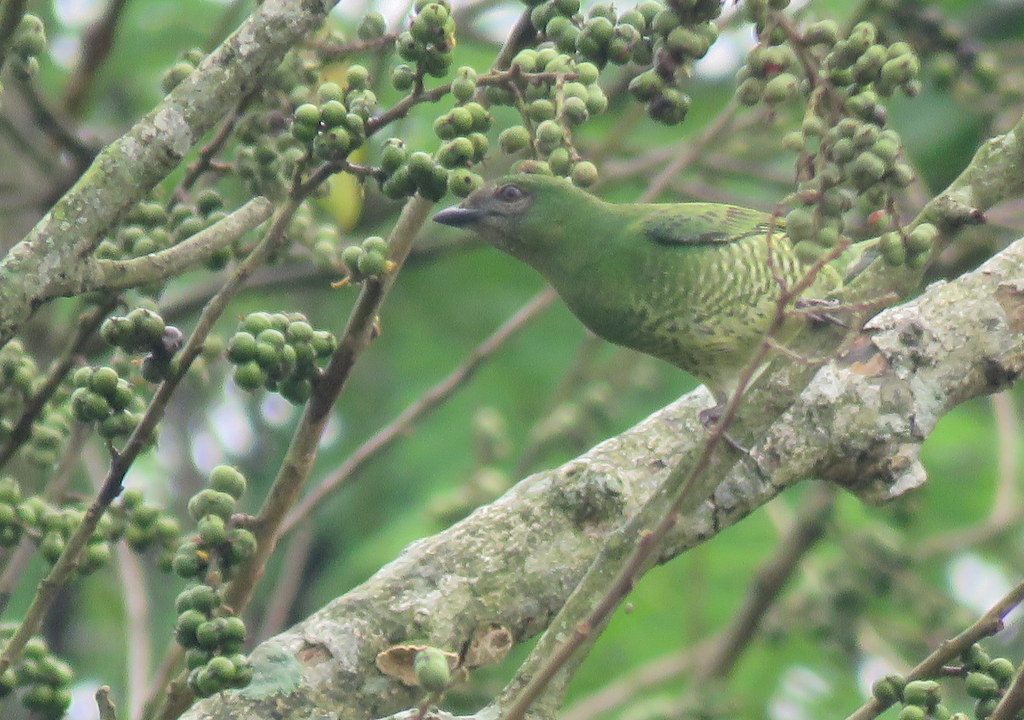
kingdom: Animalia
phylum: Chordata
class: Aves
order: Passeriformes
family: Thraupidae
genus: Tersina
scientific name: Tersina viridis
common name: Swallow tanager
